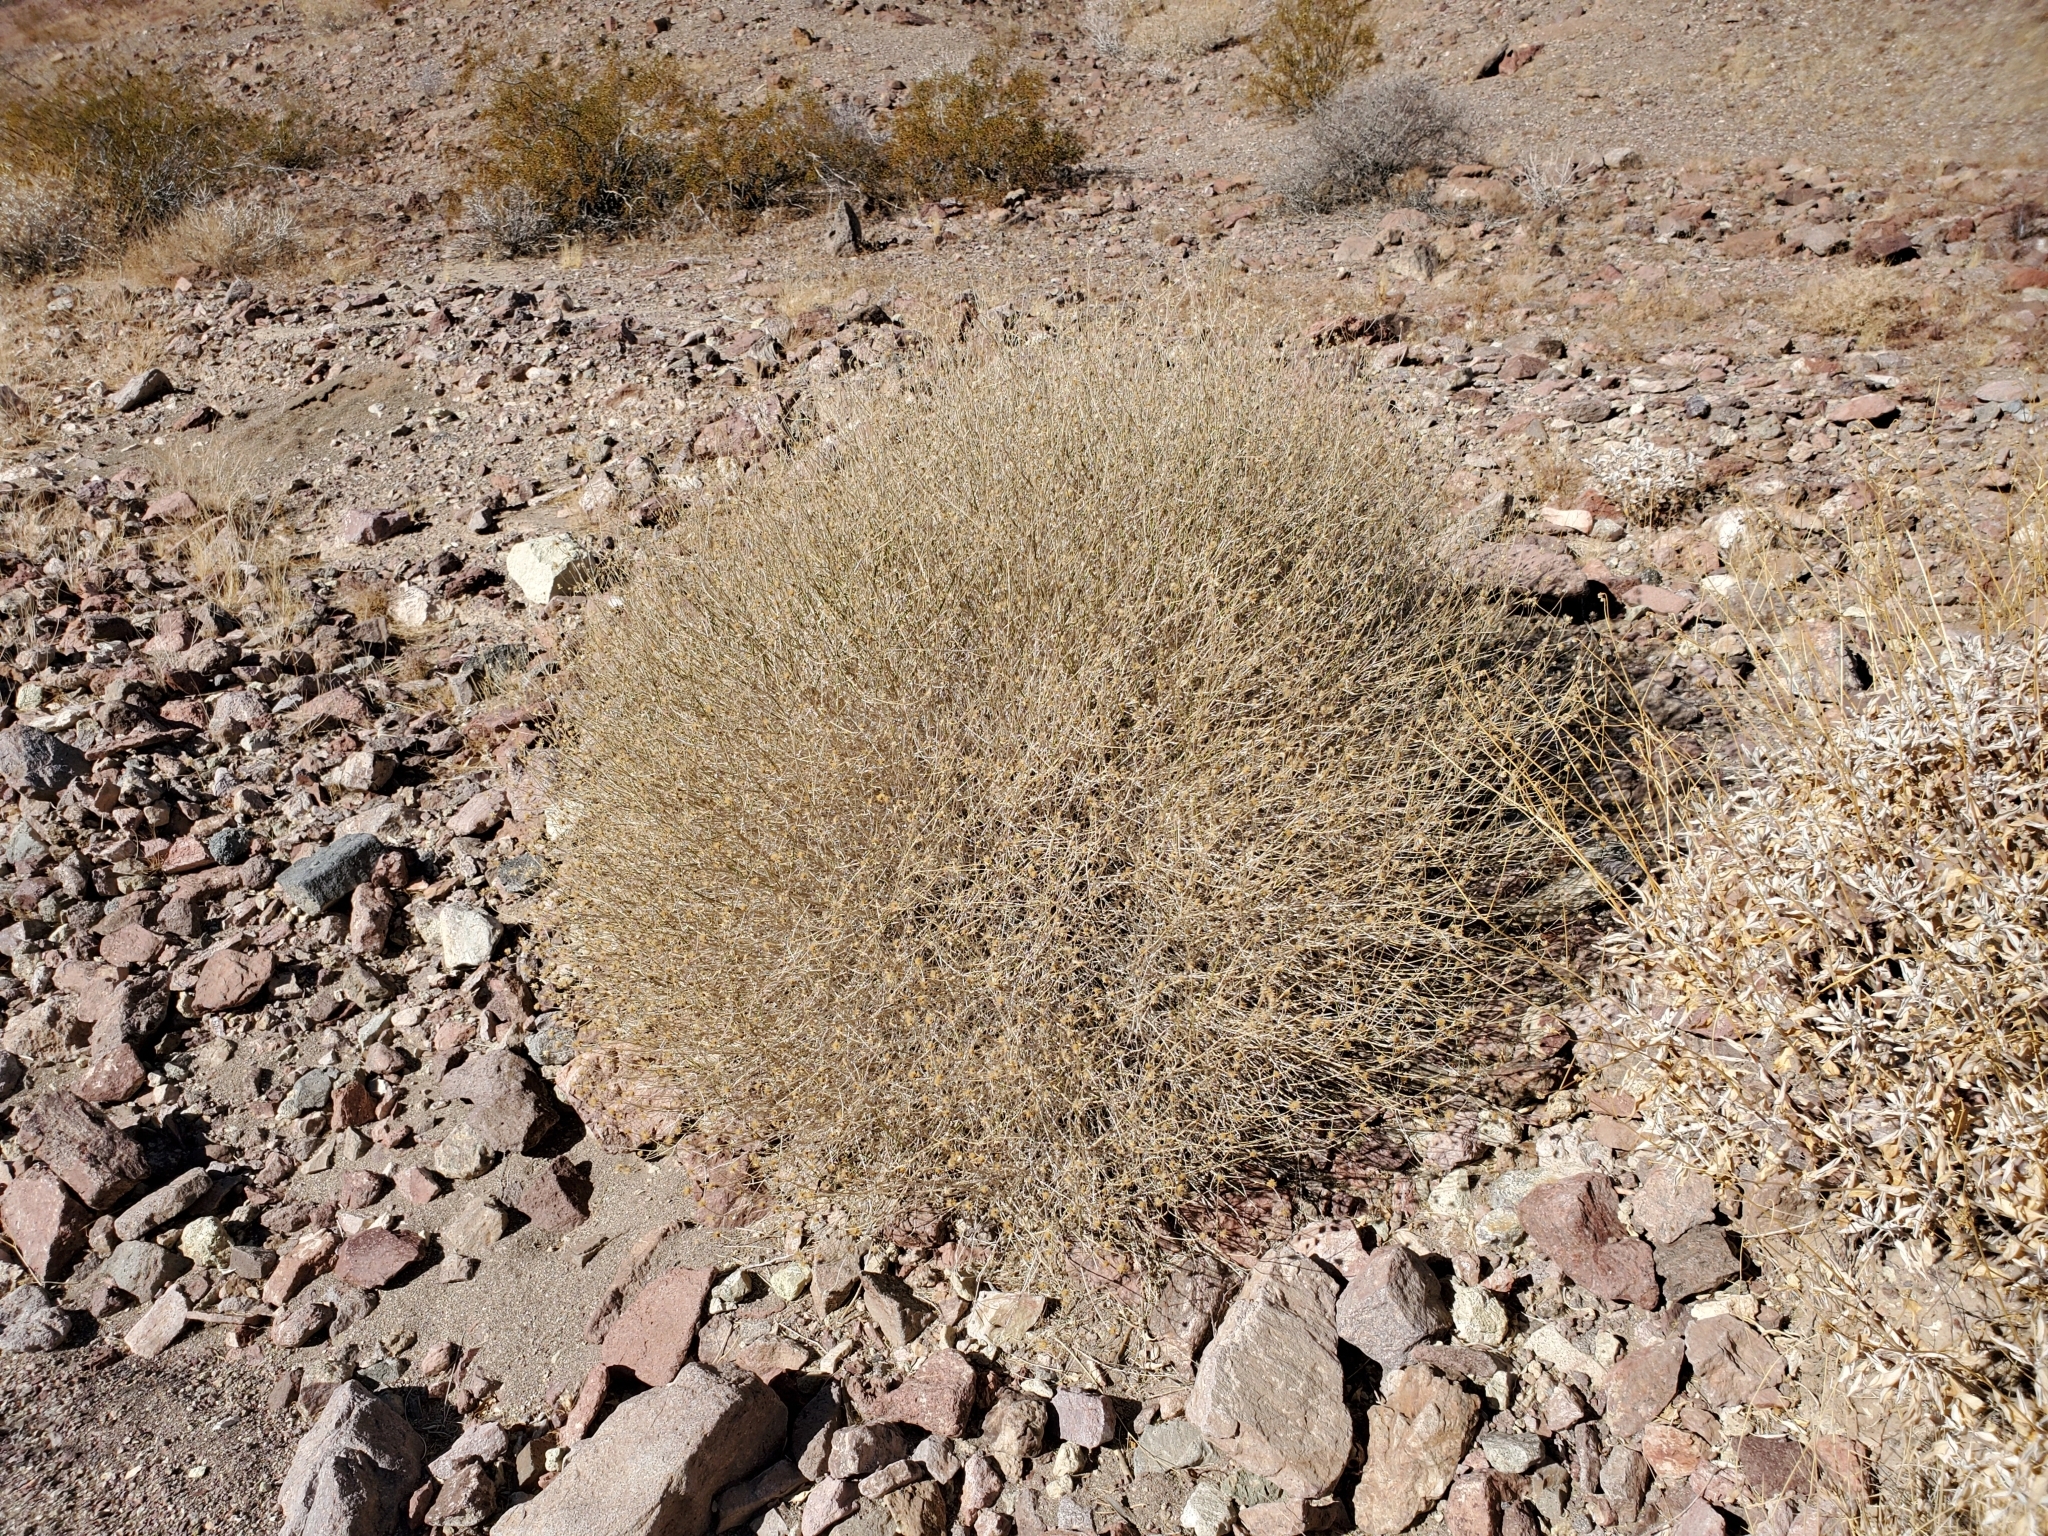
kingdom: Plantae
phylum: Tracheophyta
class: Magnoliopsida
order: Asterales
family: Asteraceae
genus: Bebbia
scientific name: Bebbia juncea
